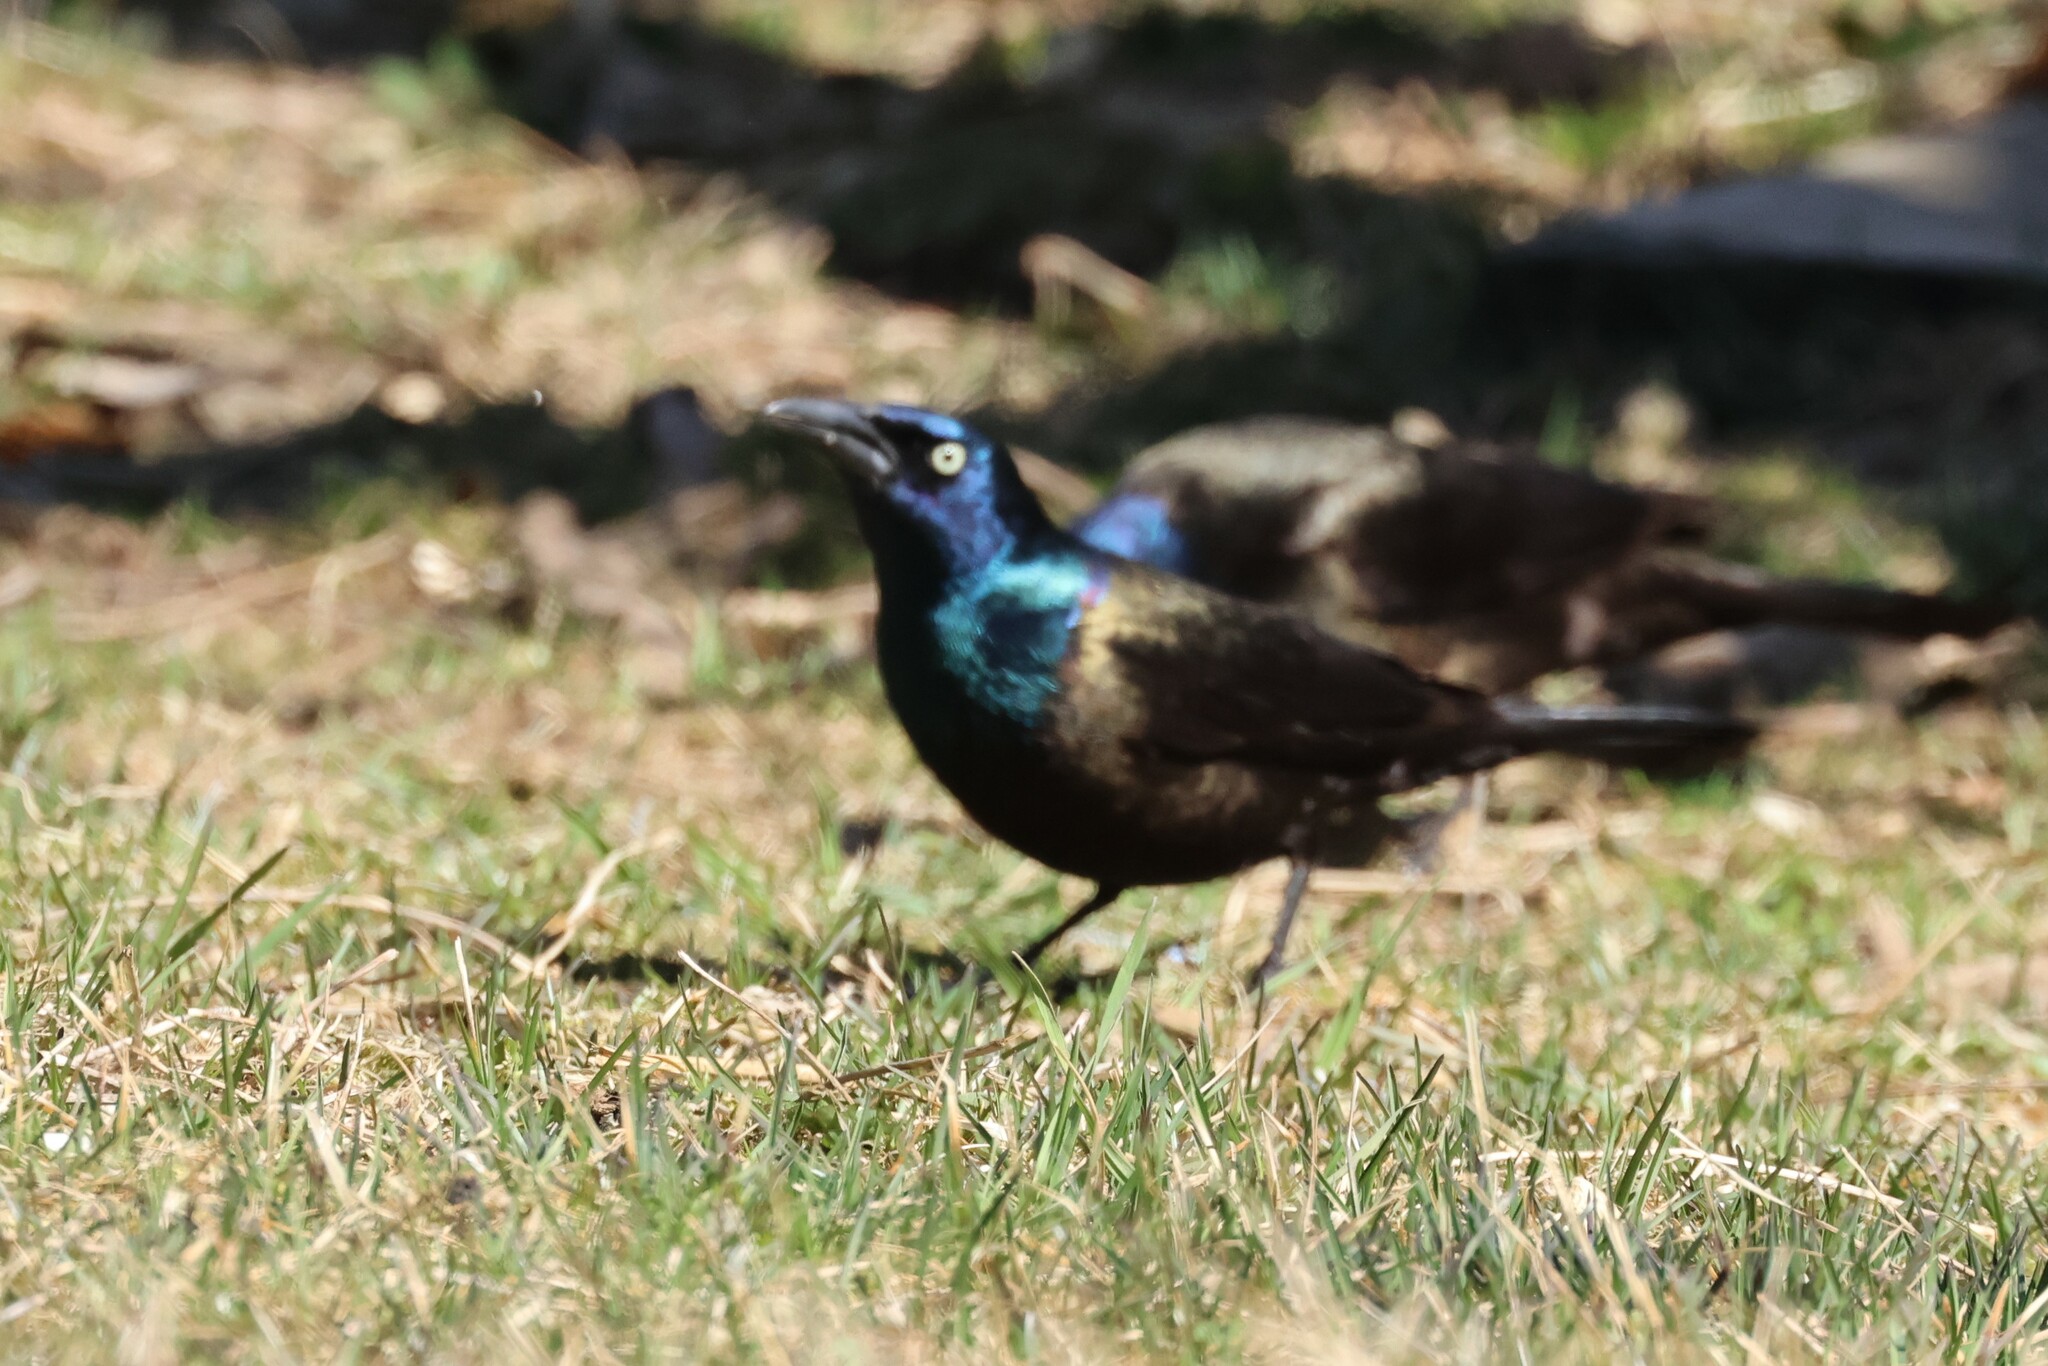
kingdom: Animalia
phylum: Chordata
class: Aves
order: Passeriformes
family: Icteridae
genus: Quiscalus
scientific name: Quiscalus quiscula
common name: Common grackle
